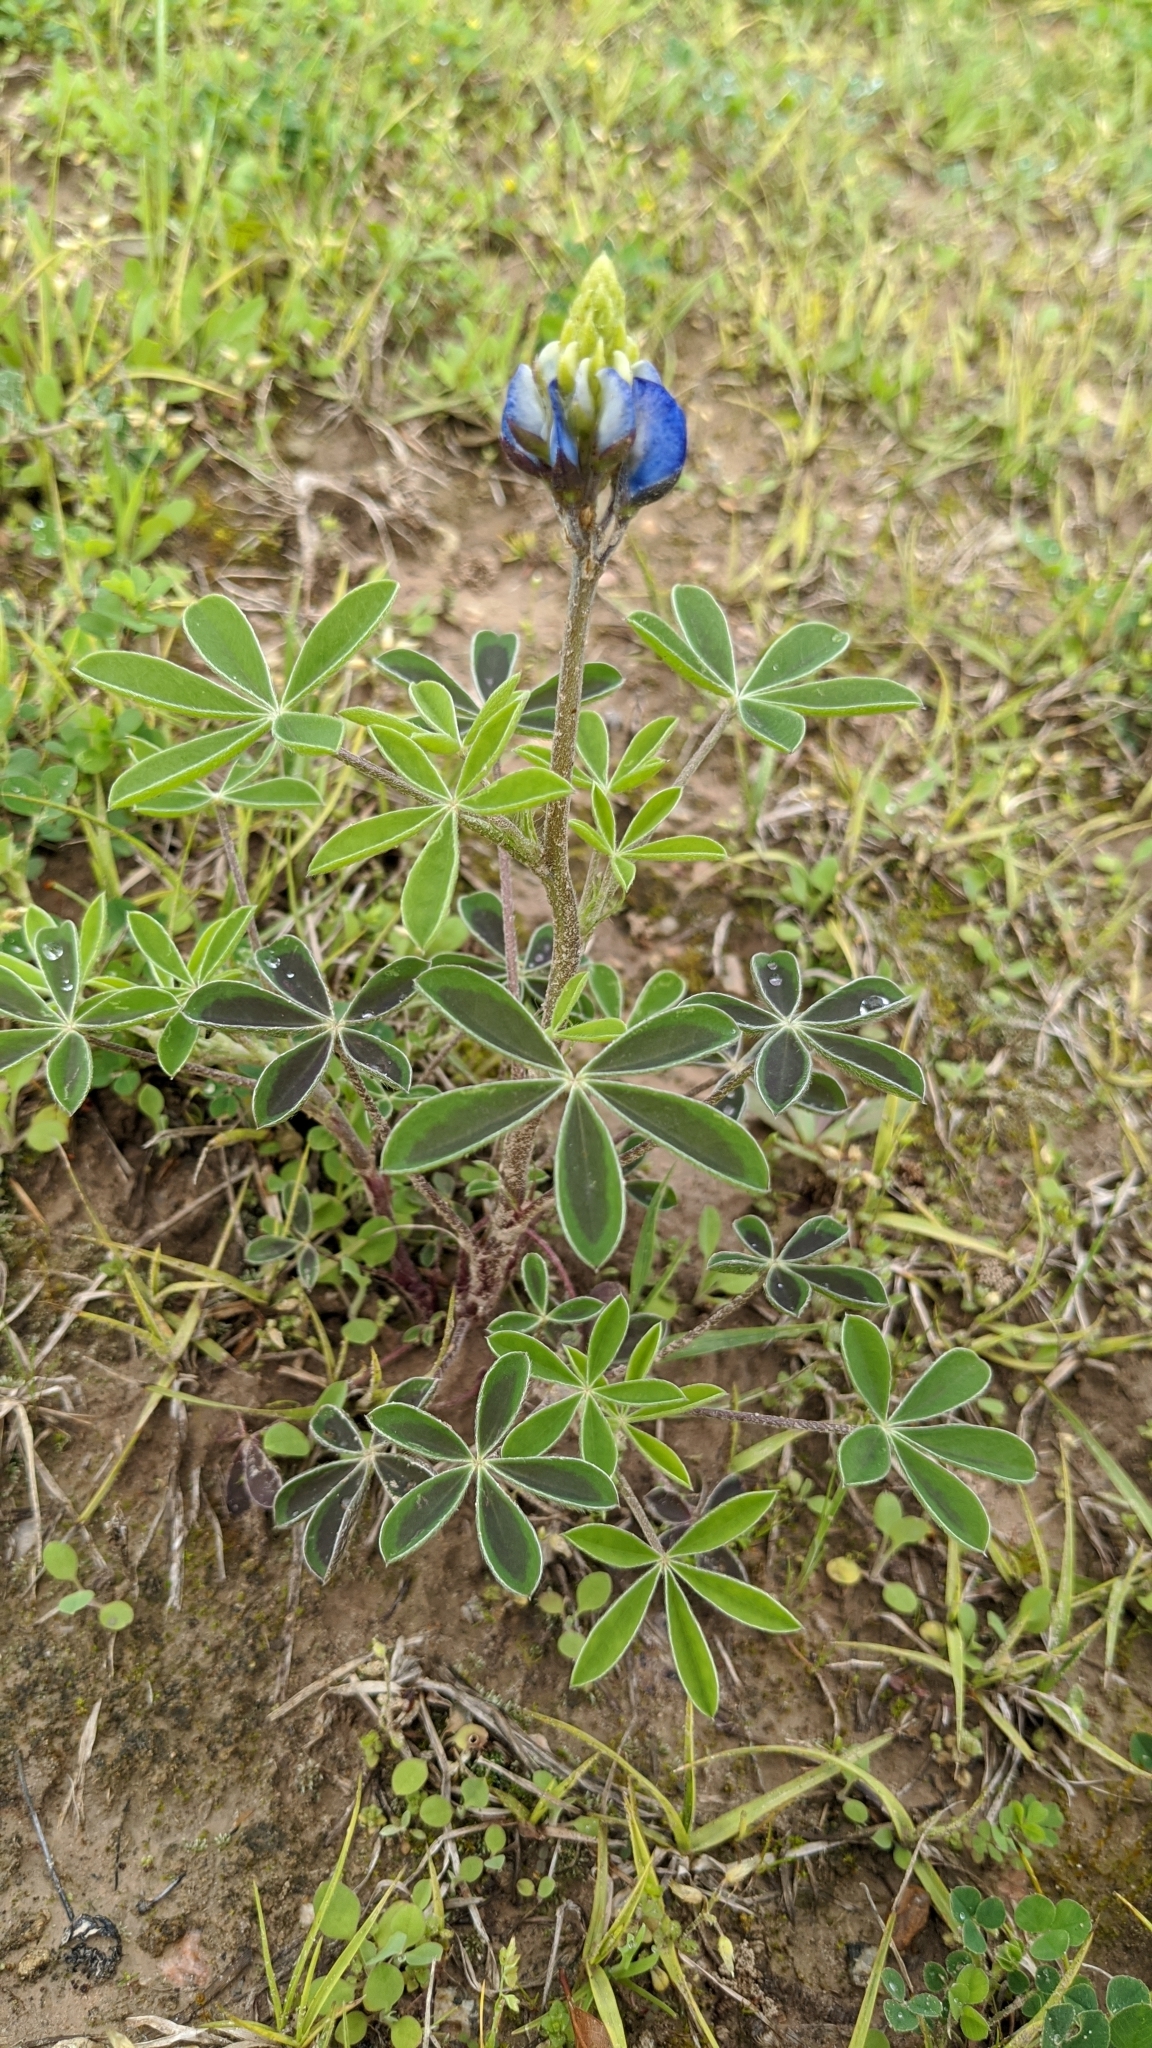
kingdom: Plantae
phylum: Tracheophyta
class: Magnoliopsida
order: Fabales
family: Fabaceae
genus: Lupinus
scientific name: Lupinus texensis
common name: Texas bluebonnet
